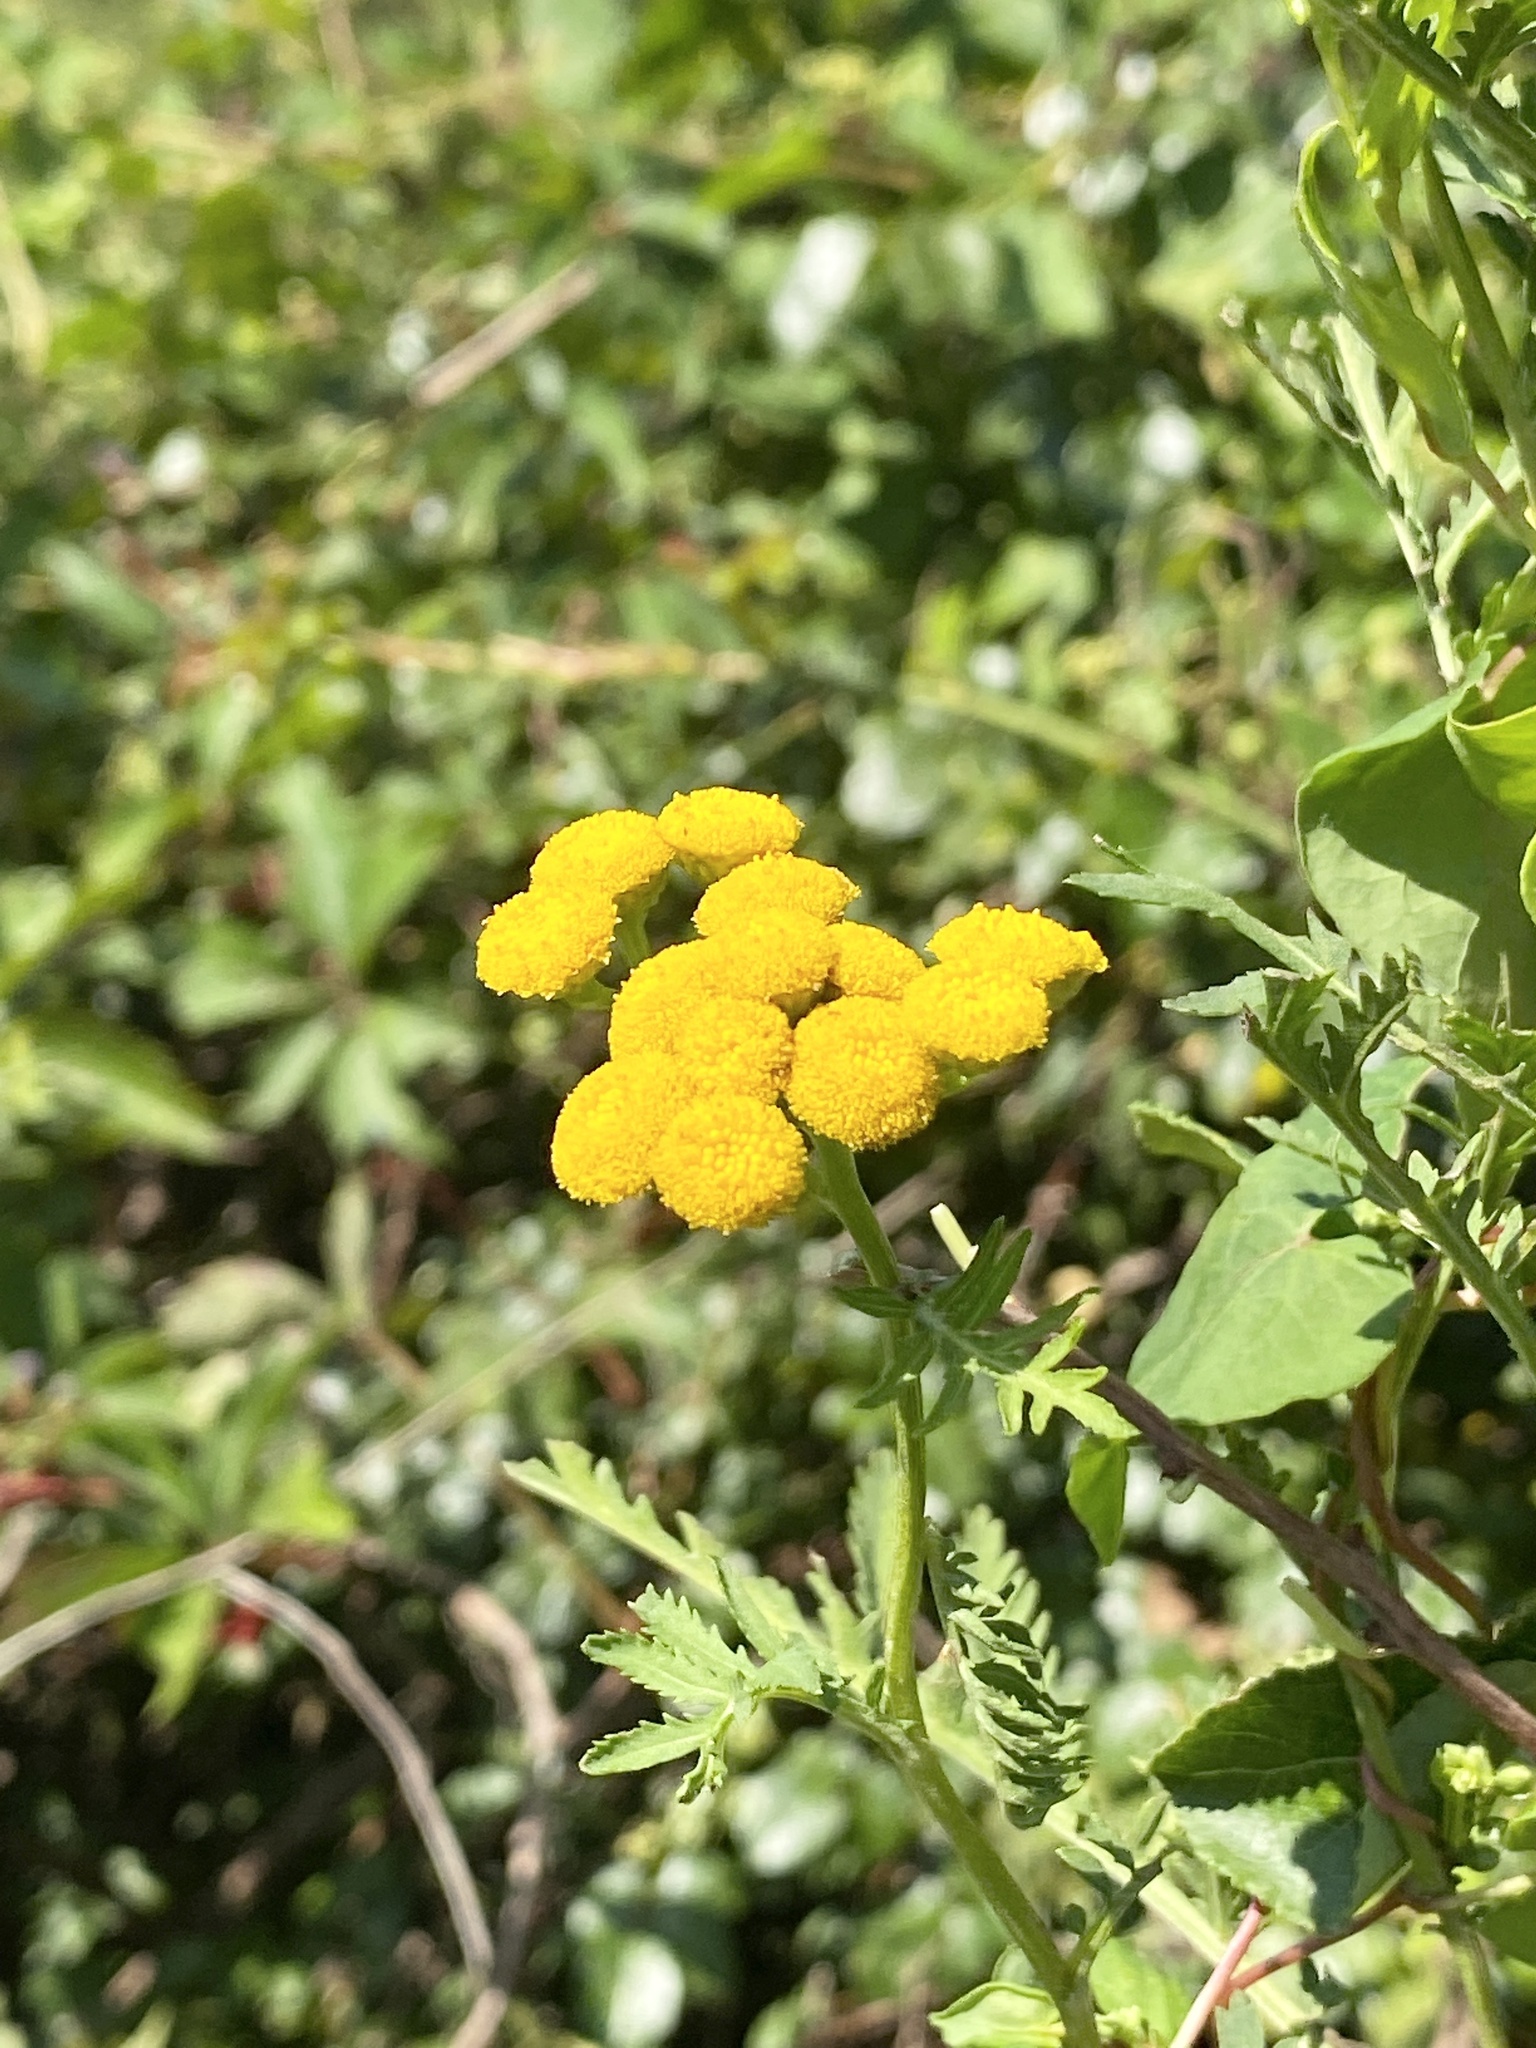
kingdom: Plantae
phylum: Tracheophyta
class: Magnoliopsida
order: Asterales
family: Asteraceae
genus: Tanacetum
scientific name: Tanacetum vulgare
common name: Common tansy
